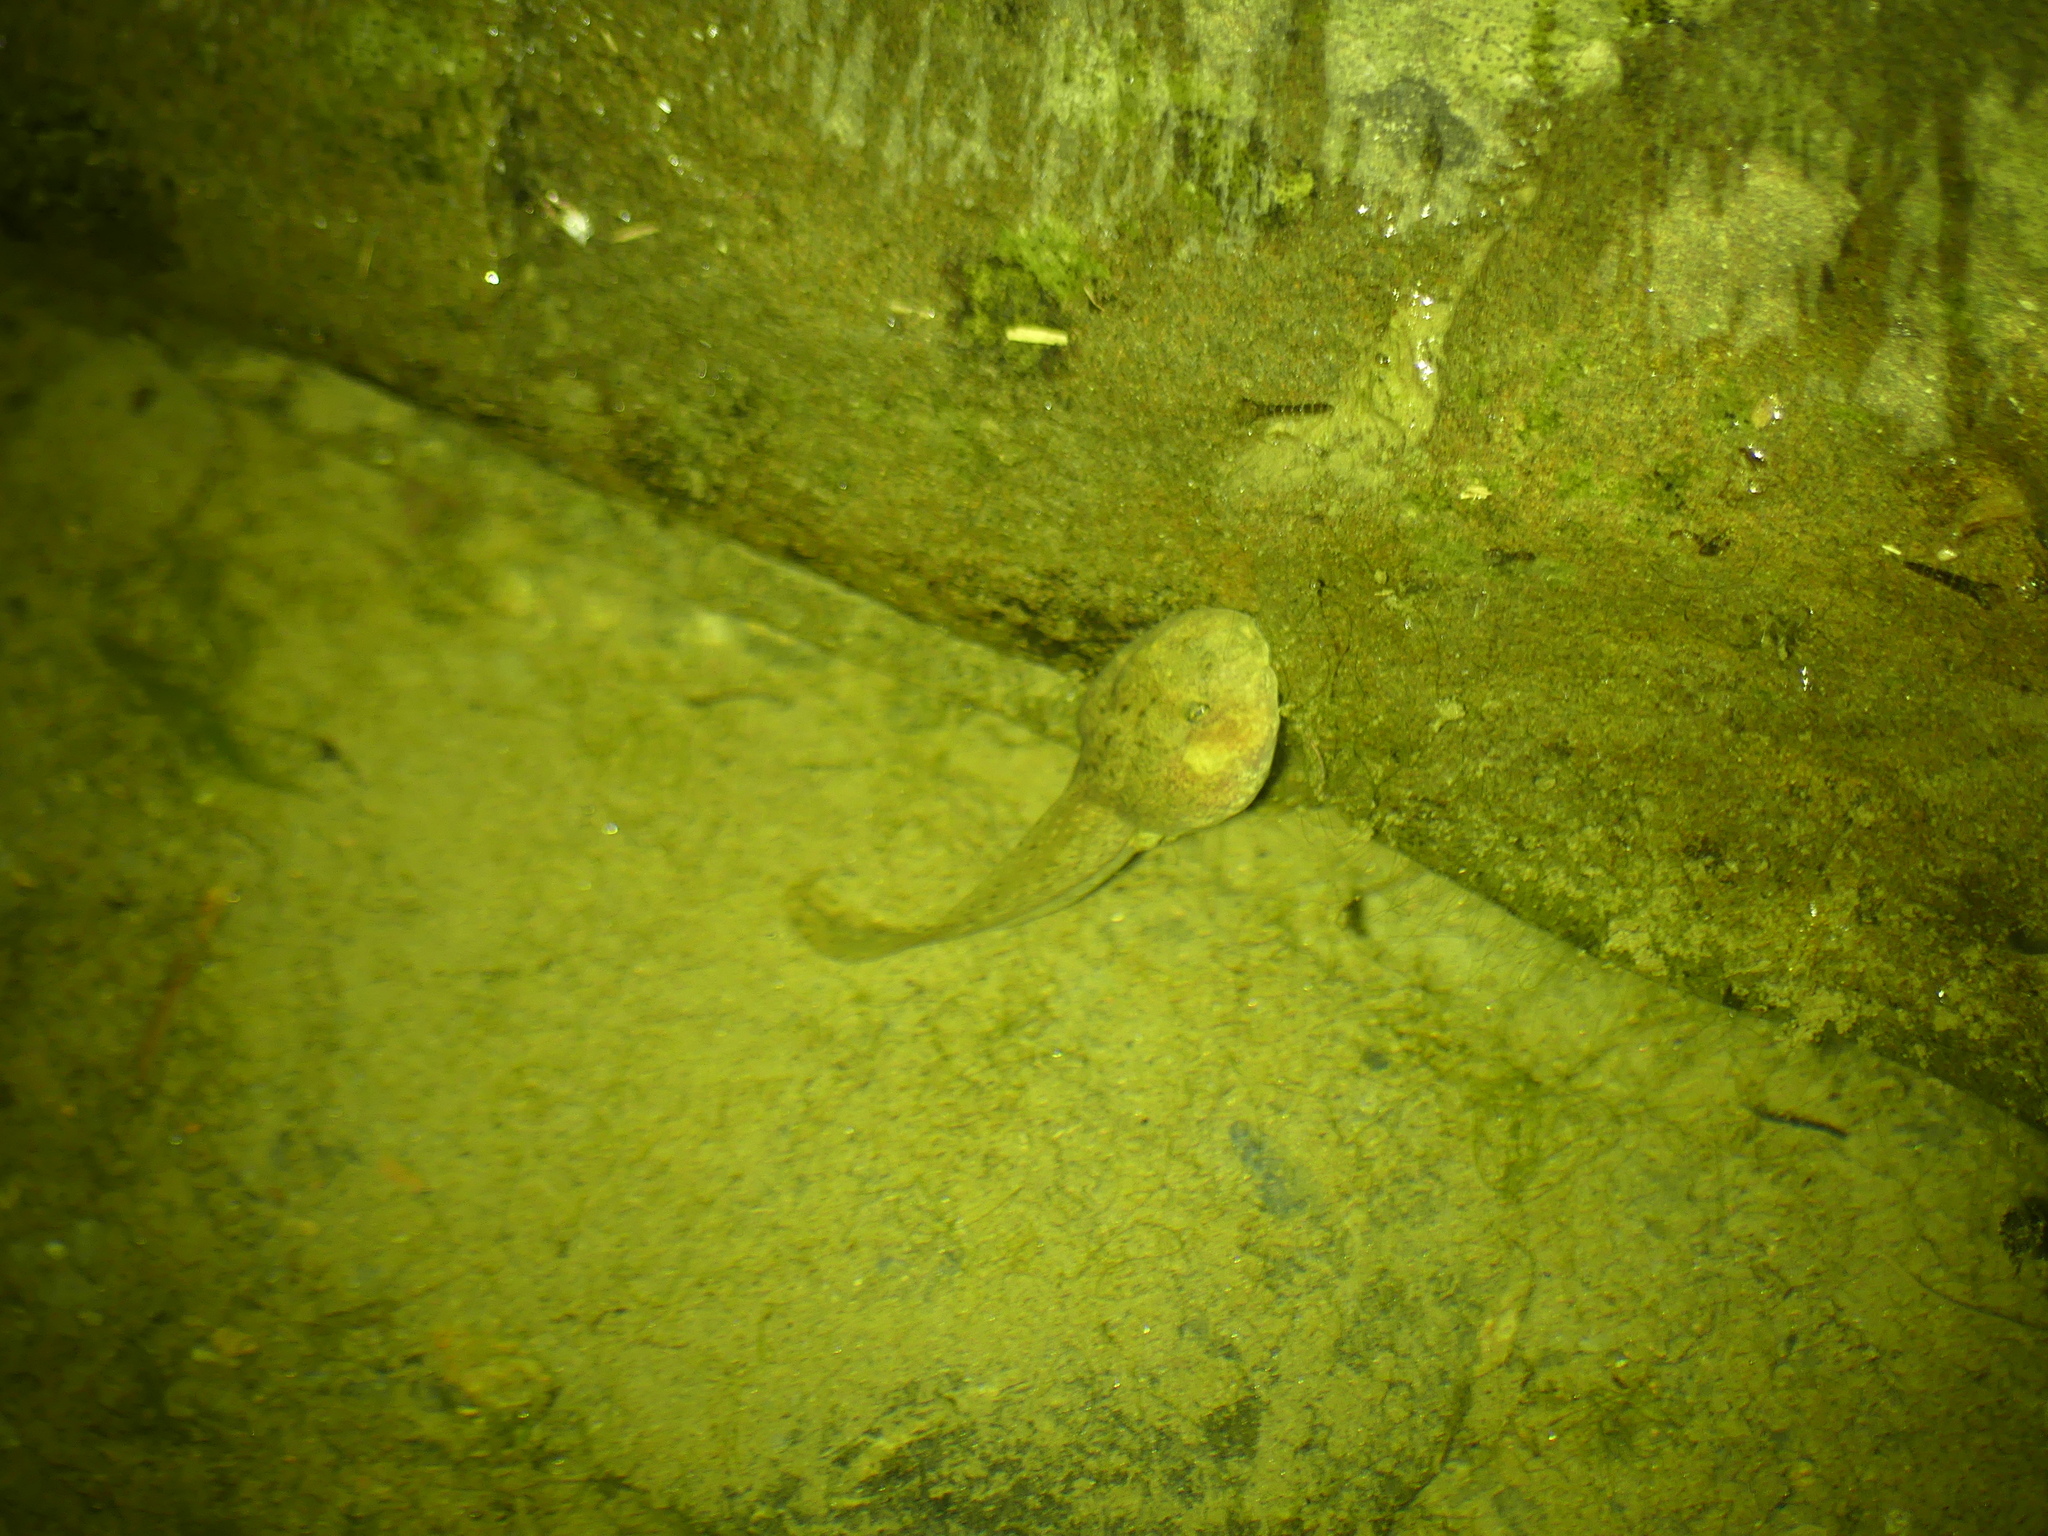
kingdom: Animalia
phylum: Chordata
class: Amphibia
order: Anura
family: Alytidae
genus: Alytes
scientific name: Alytes obstetricans
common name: Midwife toad
